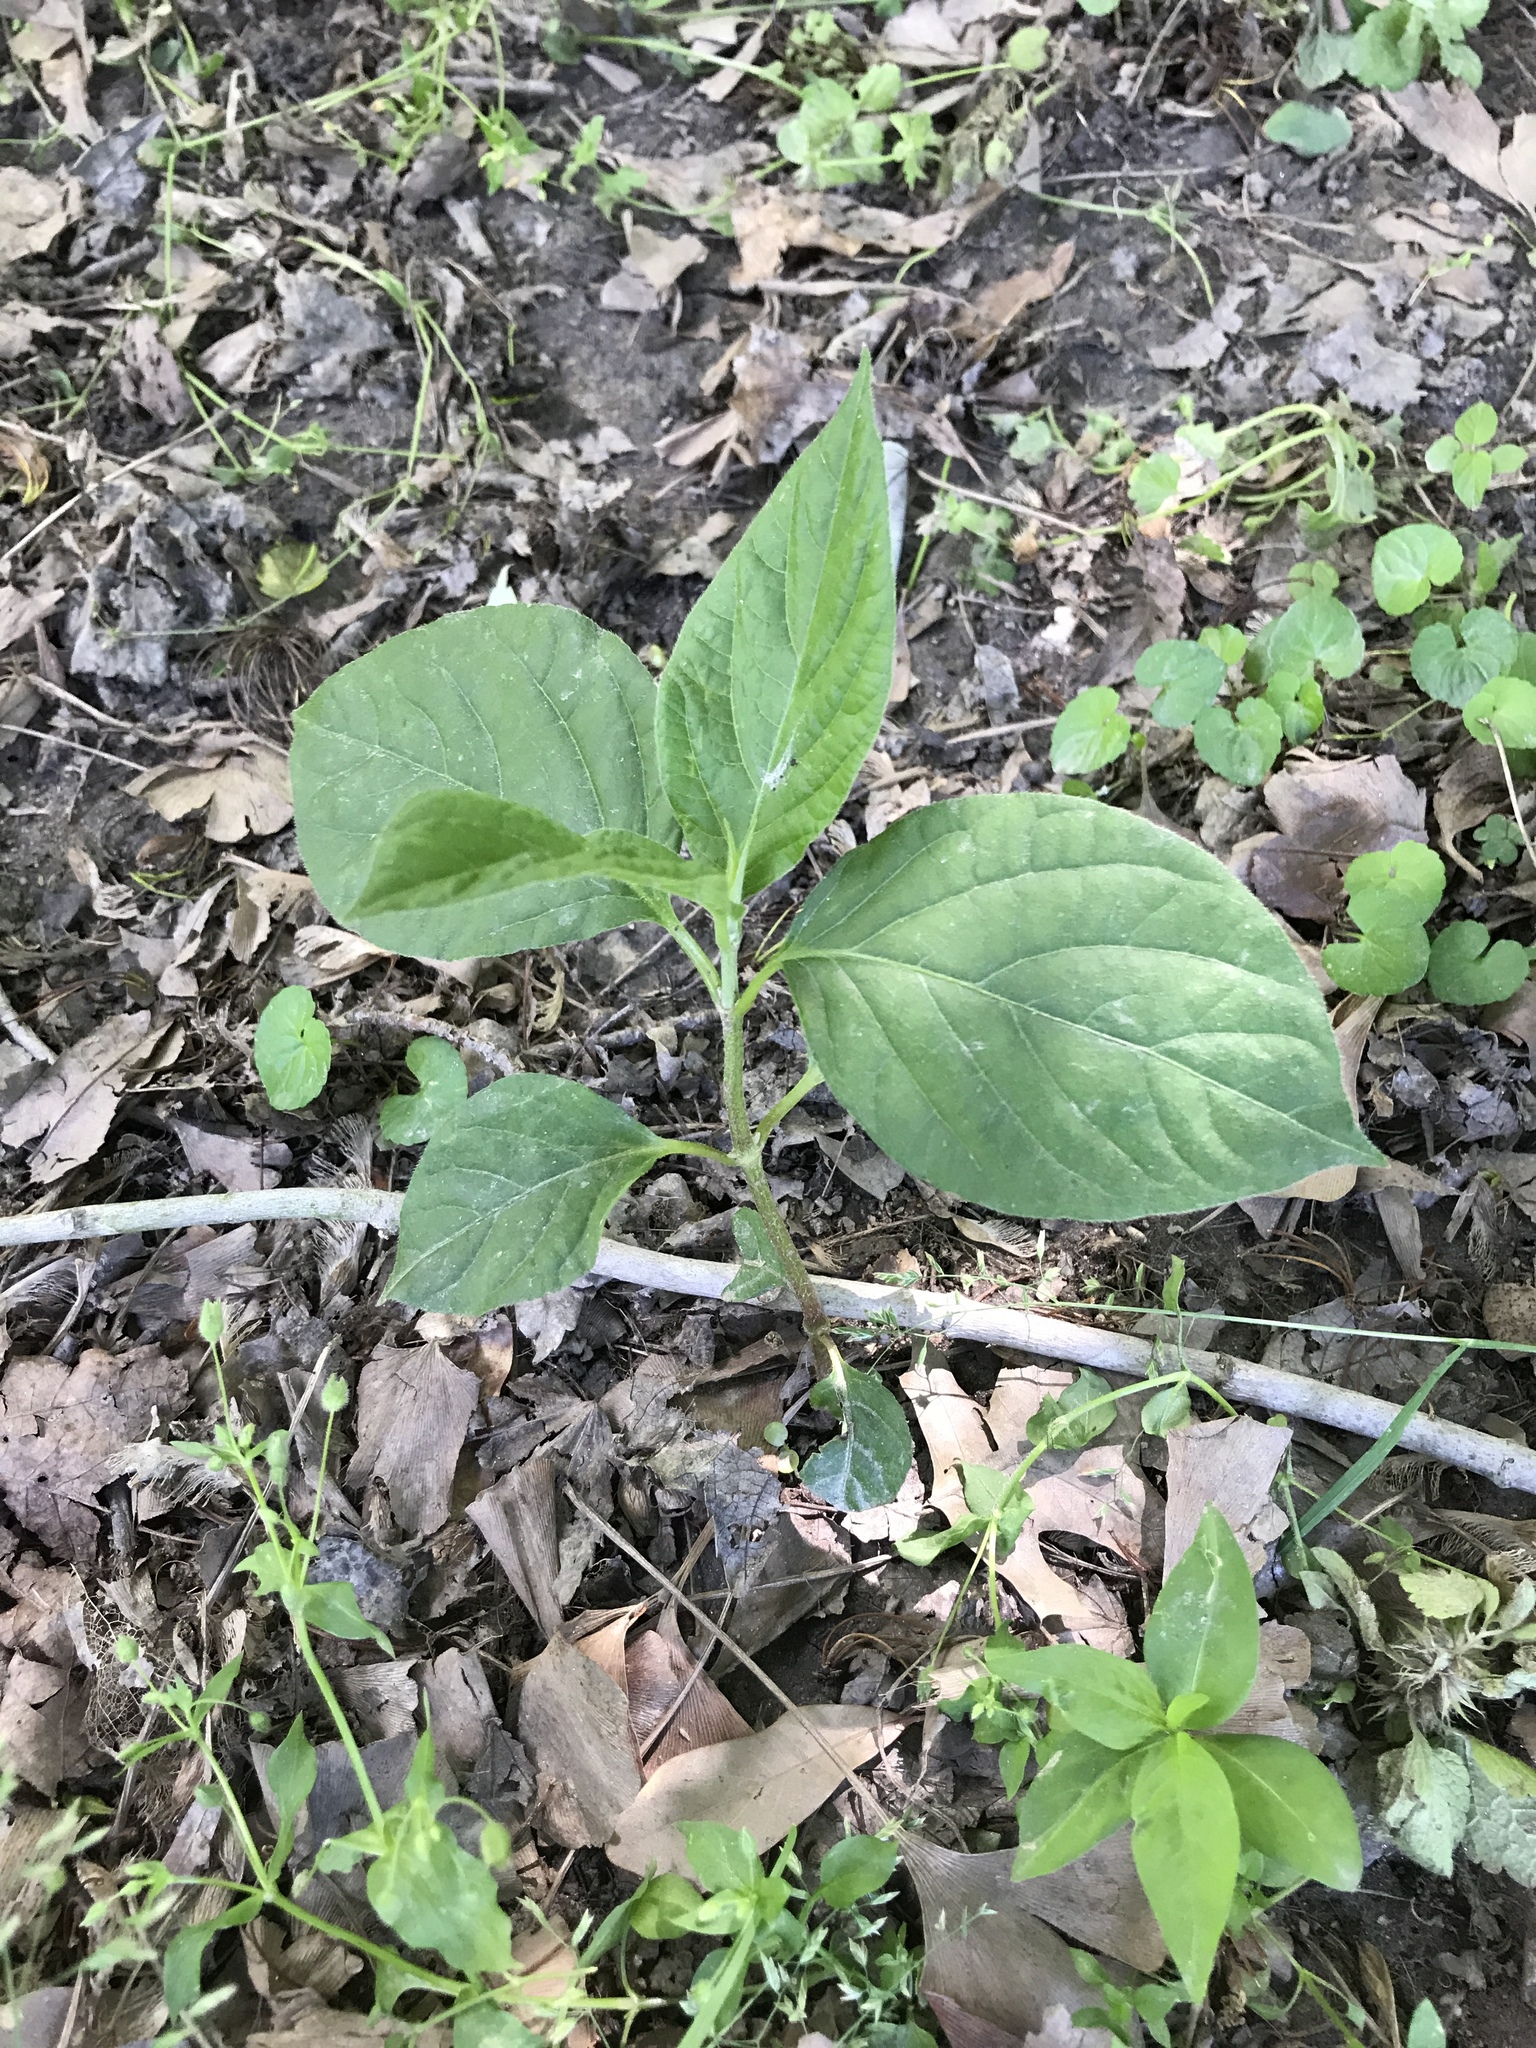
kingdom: Plantae
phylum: Tracheophyta
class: Magnoliopsida
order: Caryophyllales
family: Amaranthaceae
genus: Achyranthes
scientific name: Achyranthes bidentata
